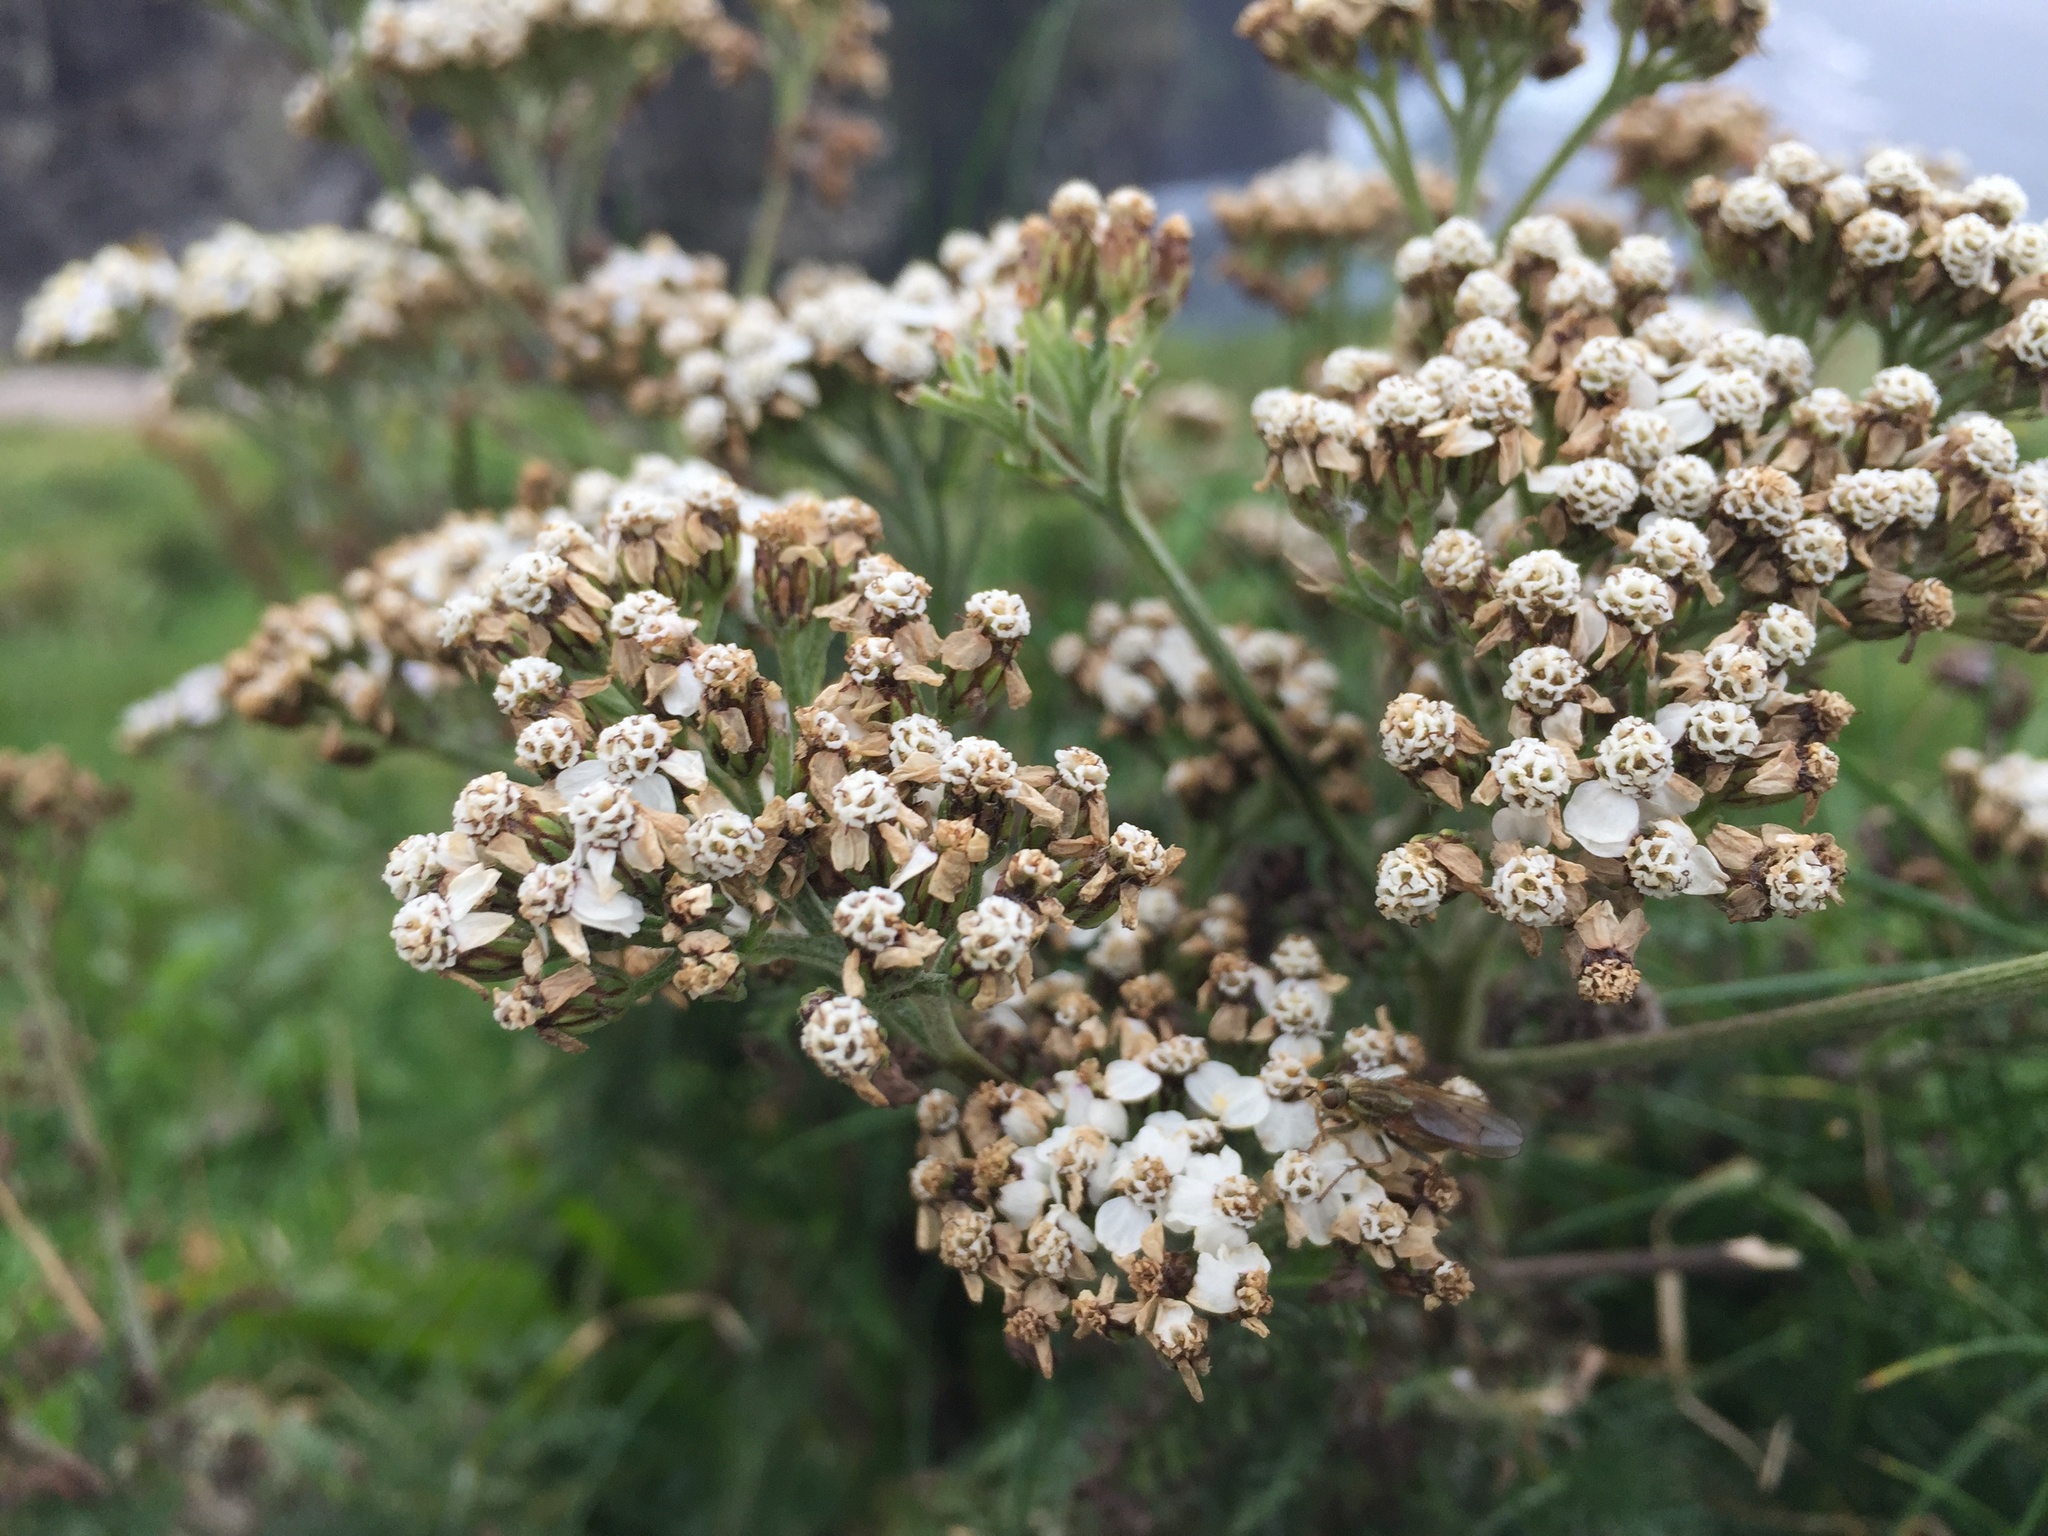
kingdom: Plantae
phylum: Tracheophyta
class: Magnoliopsida
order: Asterales
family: Asteraceae
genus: Achillea
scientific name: Achillea millefolium
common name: Yarrow
